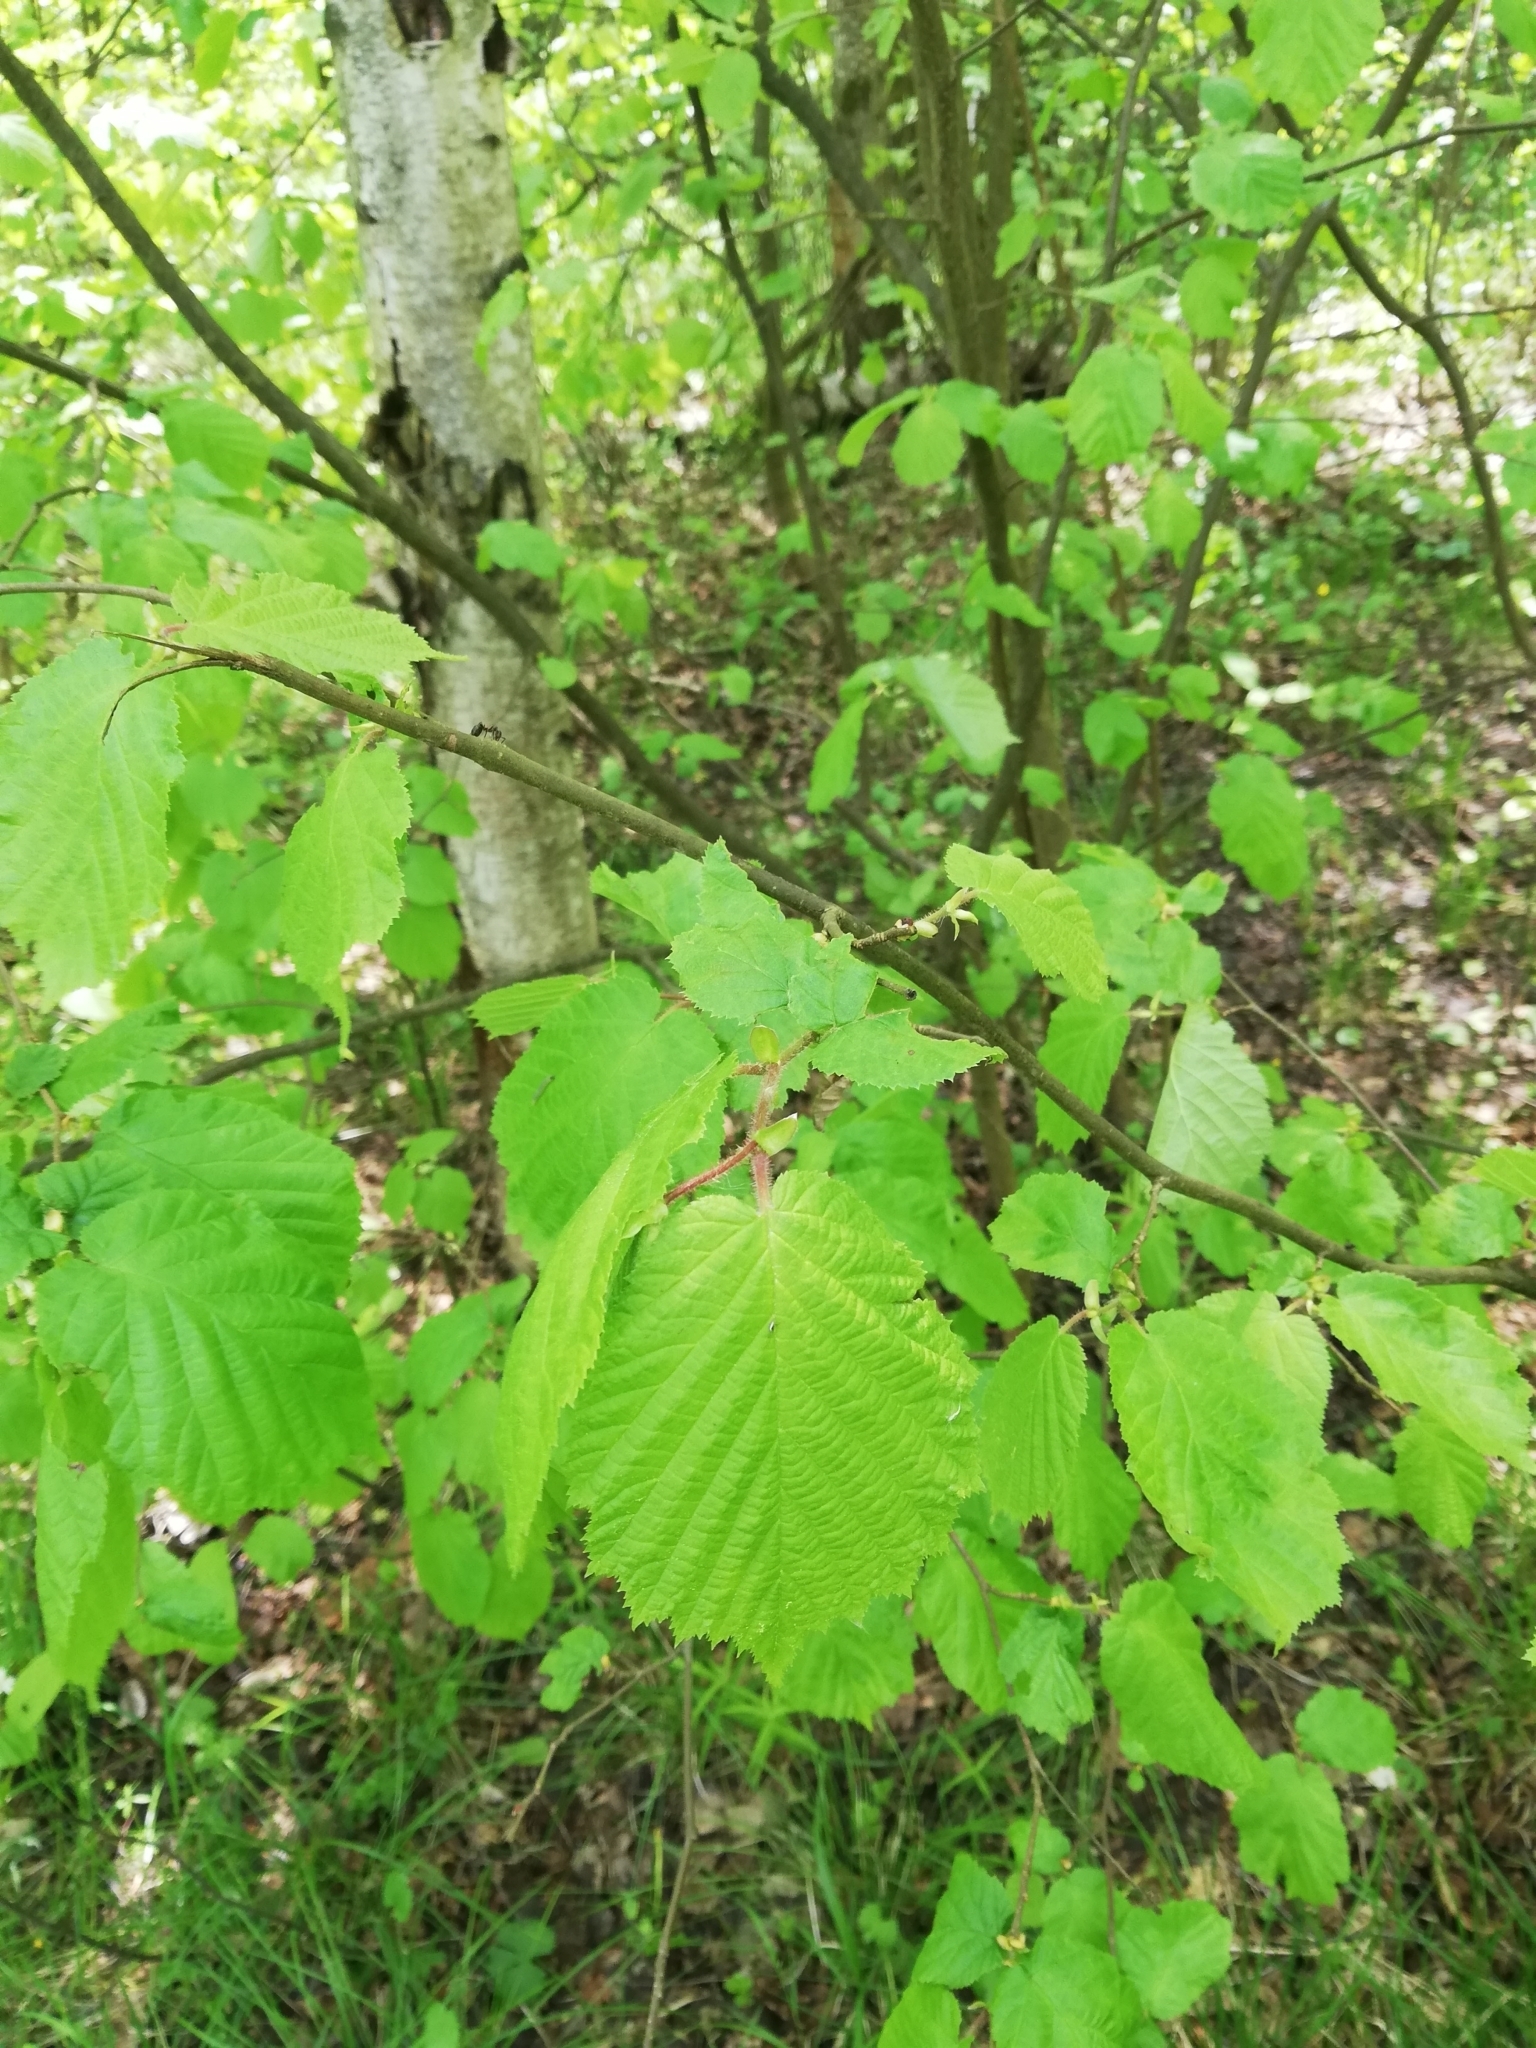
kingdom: Plantae
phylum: Tracheophyta
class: Magnoliopsida
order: Fagales
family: Betulaceae
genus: Corylus
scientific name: Corylus avellana
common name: European hazel
